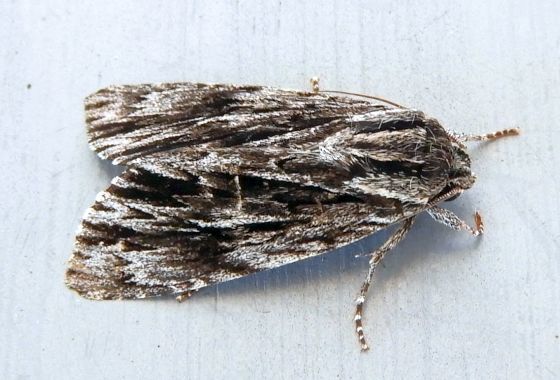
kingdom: Animalia
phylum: Arthropoda
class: Insecta
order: Lepidoptera
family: Noctuidae
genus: Acronicta
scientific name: Acronicta edolata
